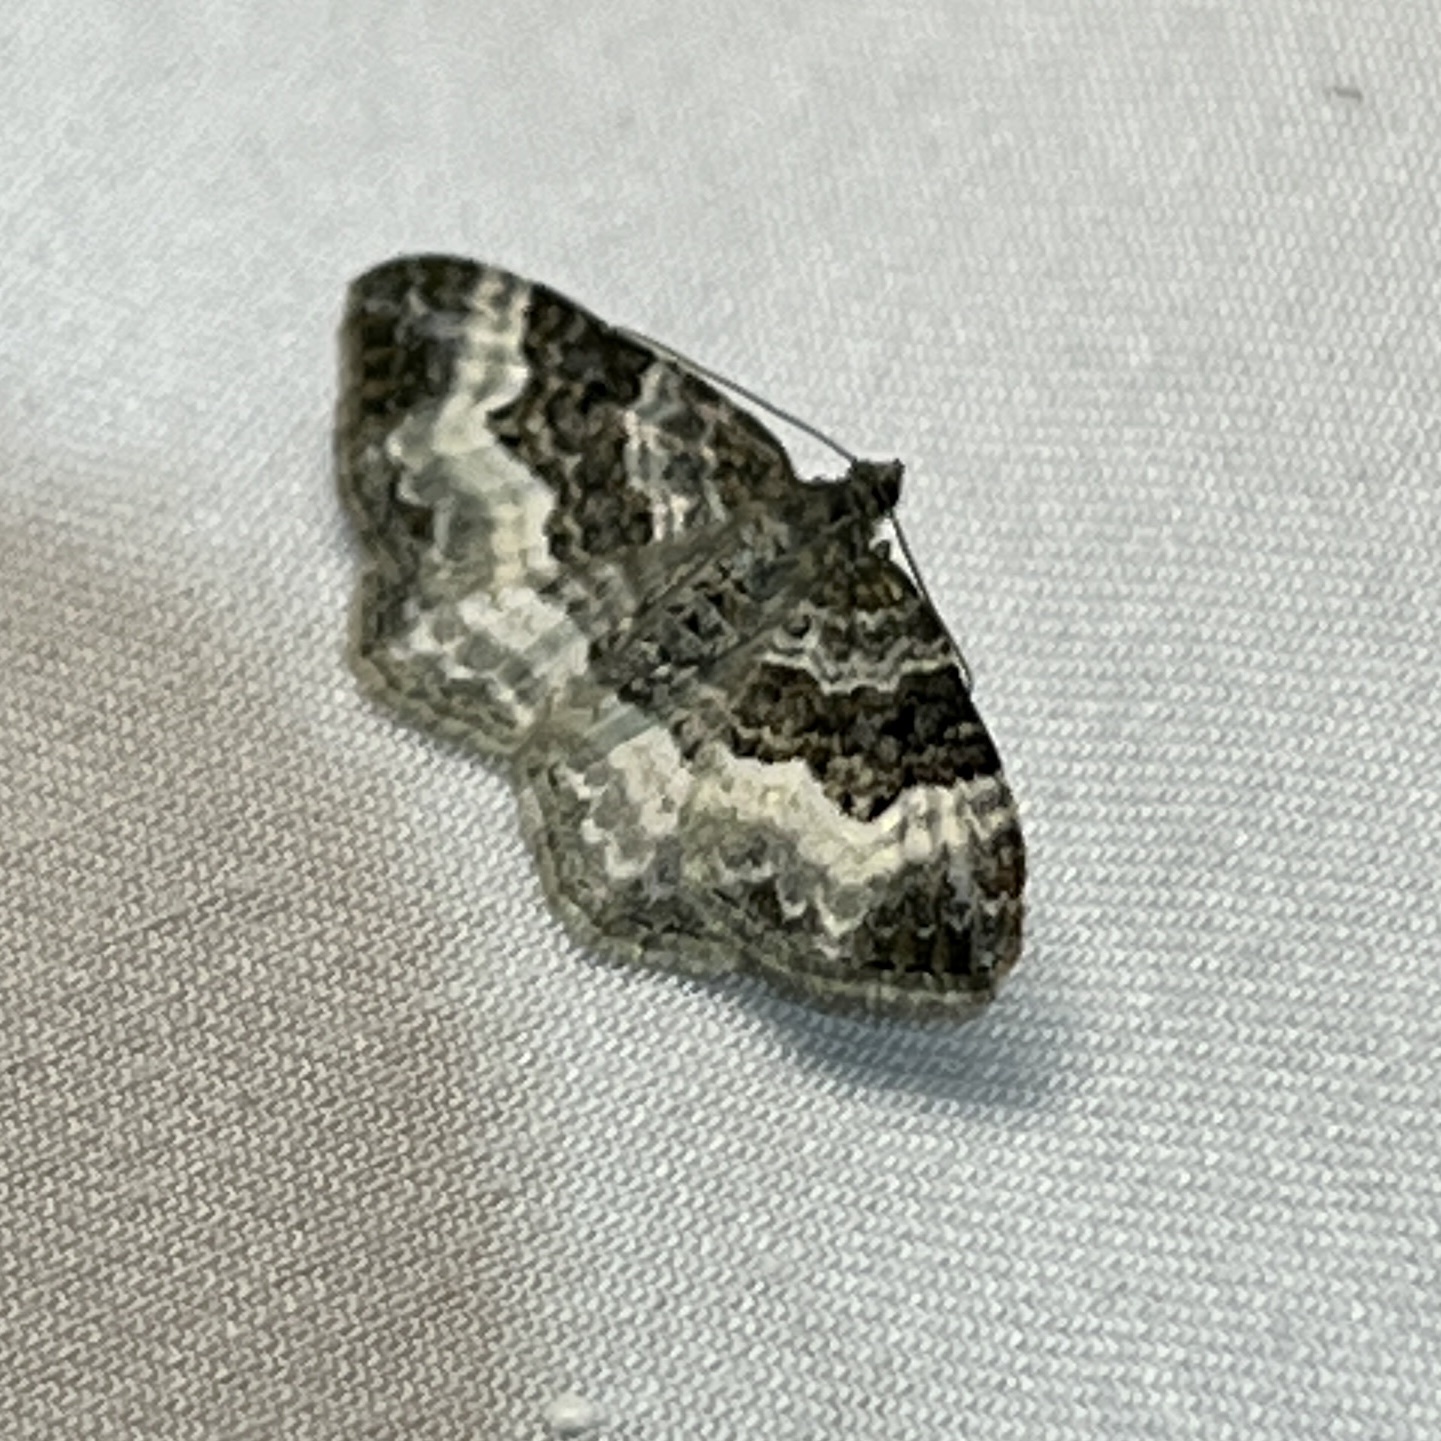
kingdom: Animalia
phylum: Arthropoda
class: Insecta
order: Lepidoptera
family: Geometridae
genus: Epirrhoe
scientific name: Epirrhoe alternata
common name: Common carpet
